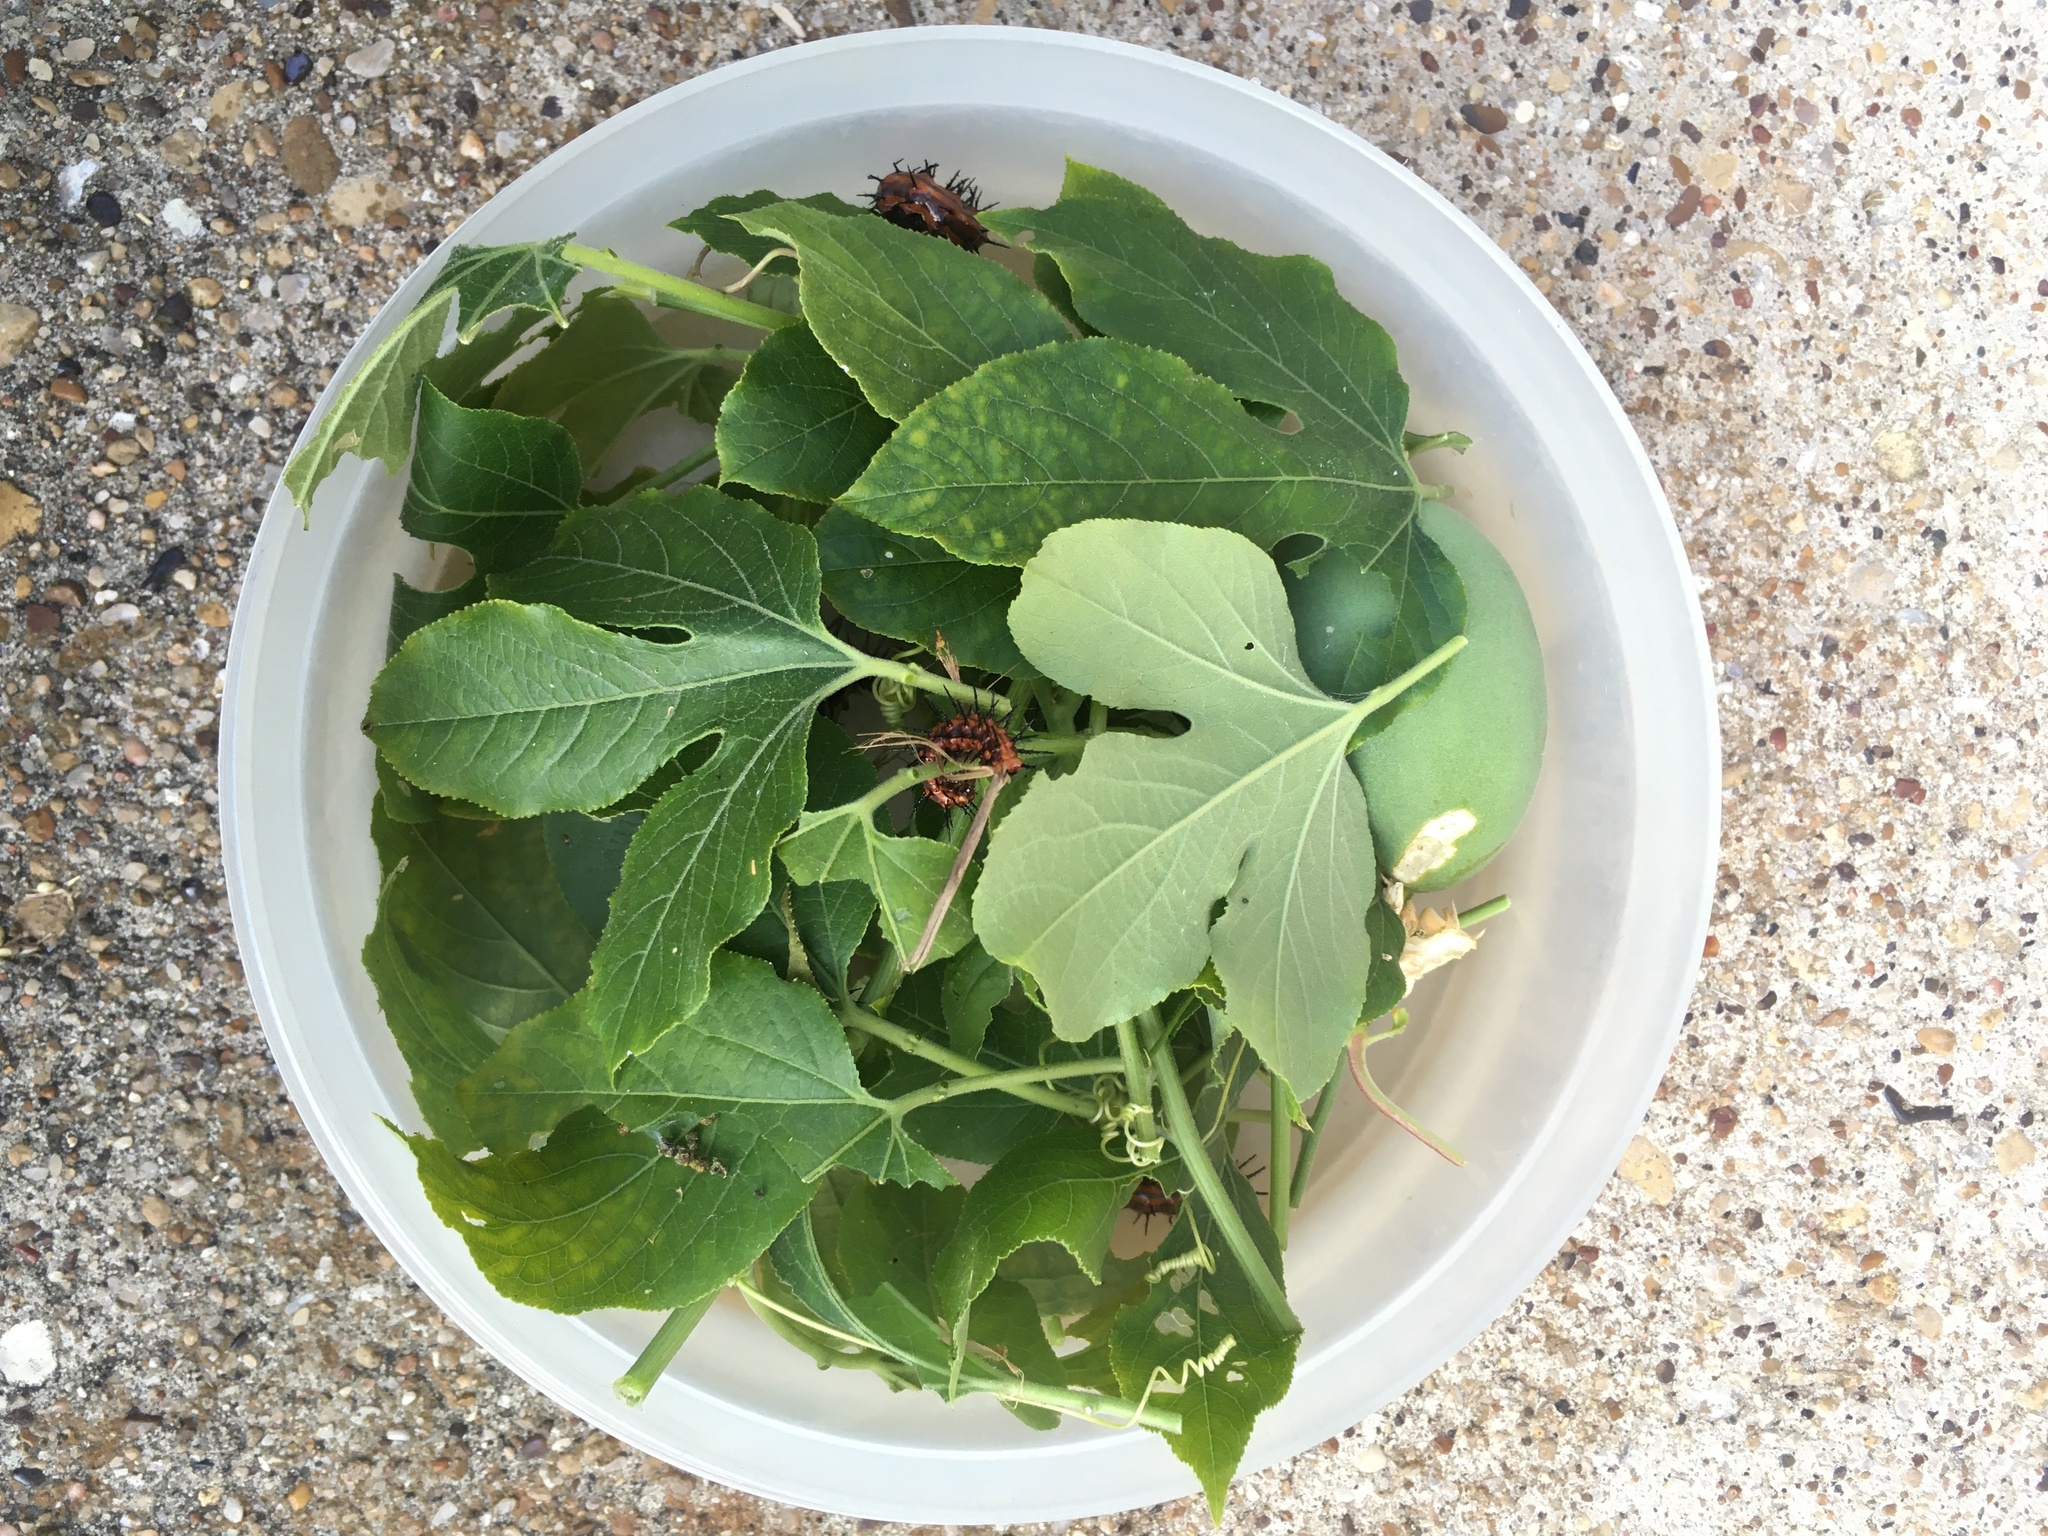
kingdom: Animalia
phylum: Arthropoda
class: Insecta
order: Lepidoptera
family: Nymphalidae
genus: Dione
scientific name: Dione vanillae
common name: Gulf fritillary
